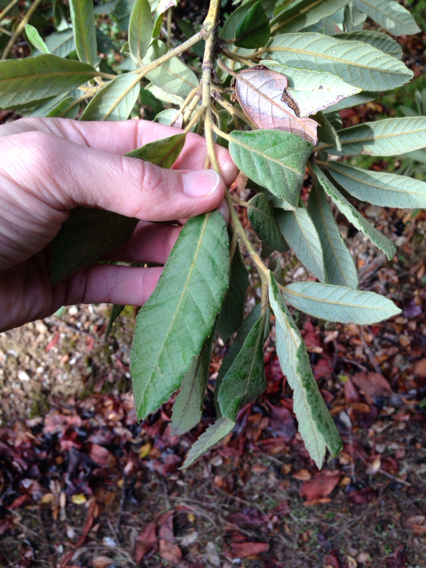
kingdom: Plantae
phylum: Tracheophyta
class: Magnoliopsida
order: Fagales
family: Fagaceae
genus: Notholithocarpus
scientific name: Notholithocarpus densiflorus
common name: Tan bark oak
